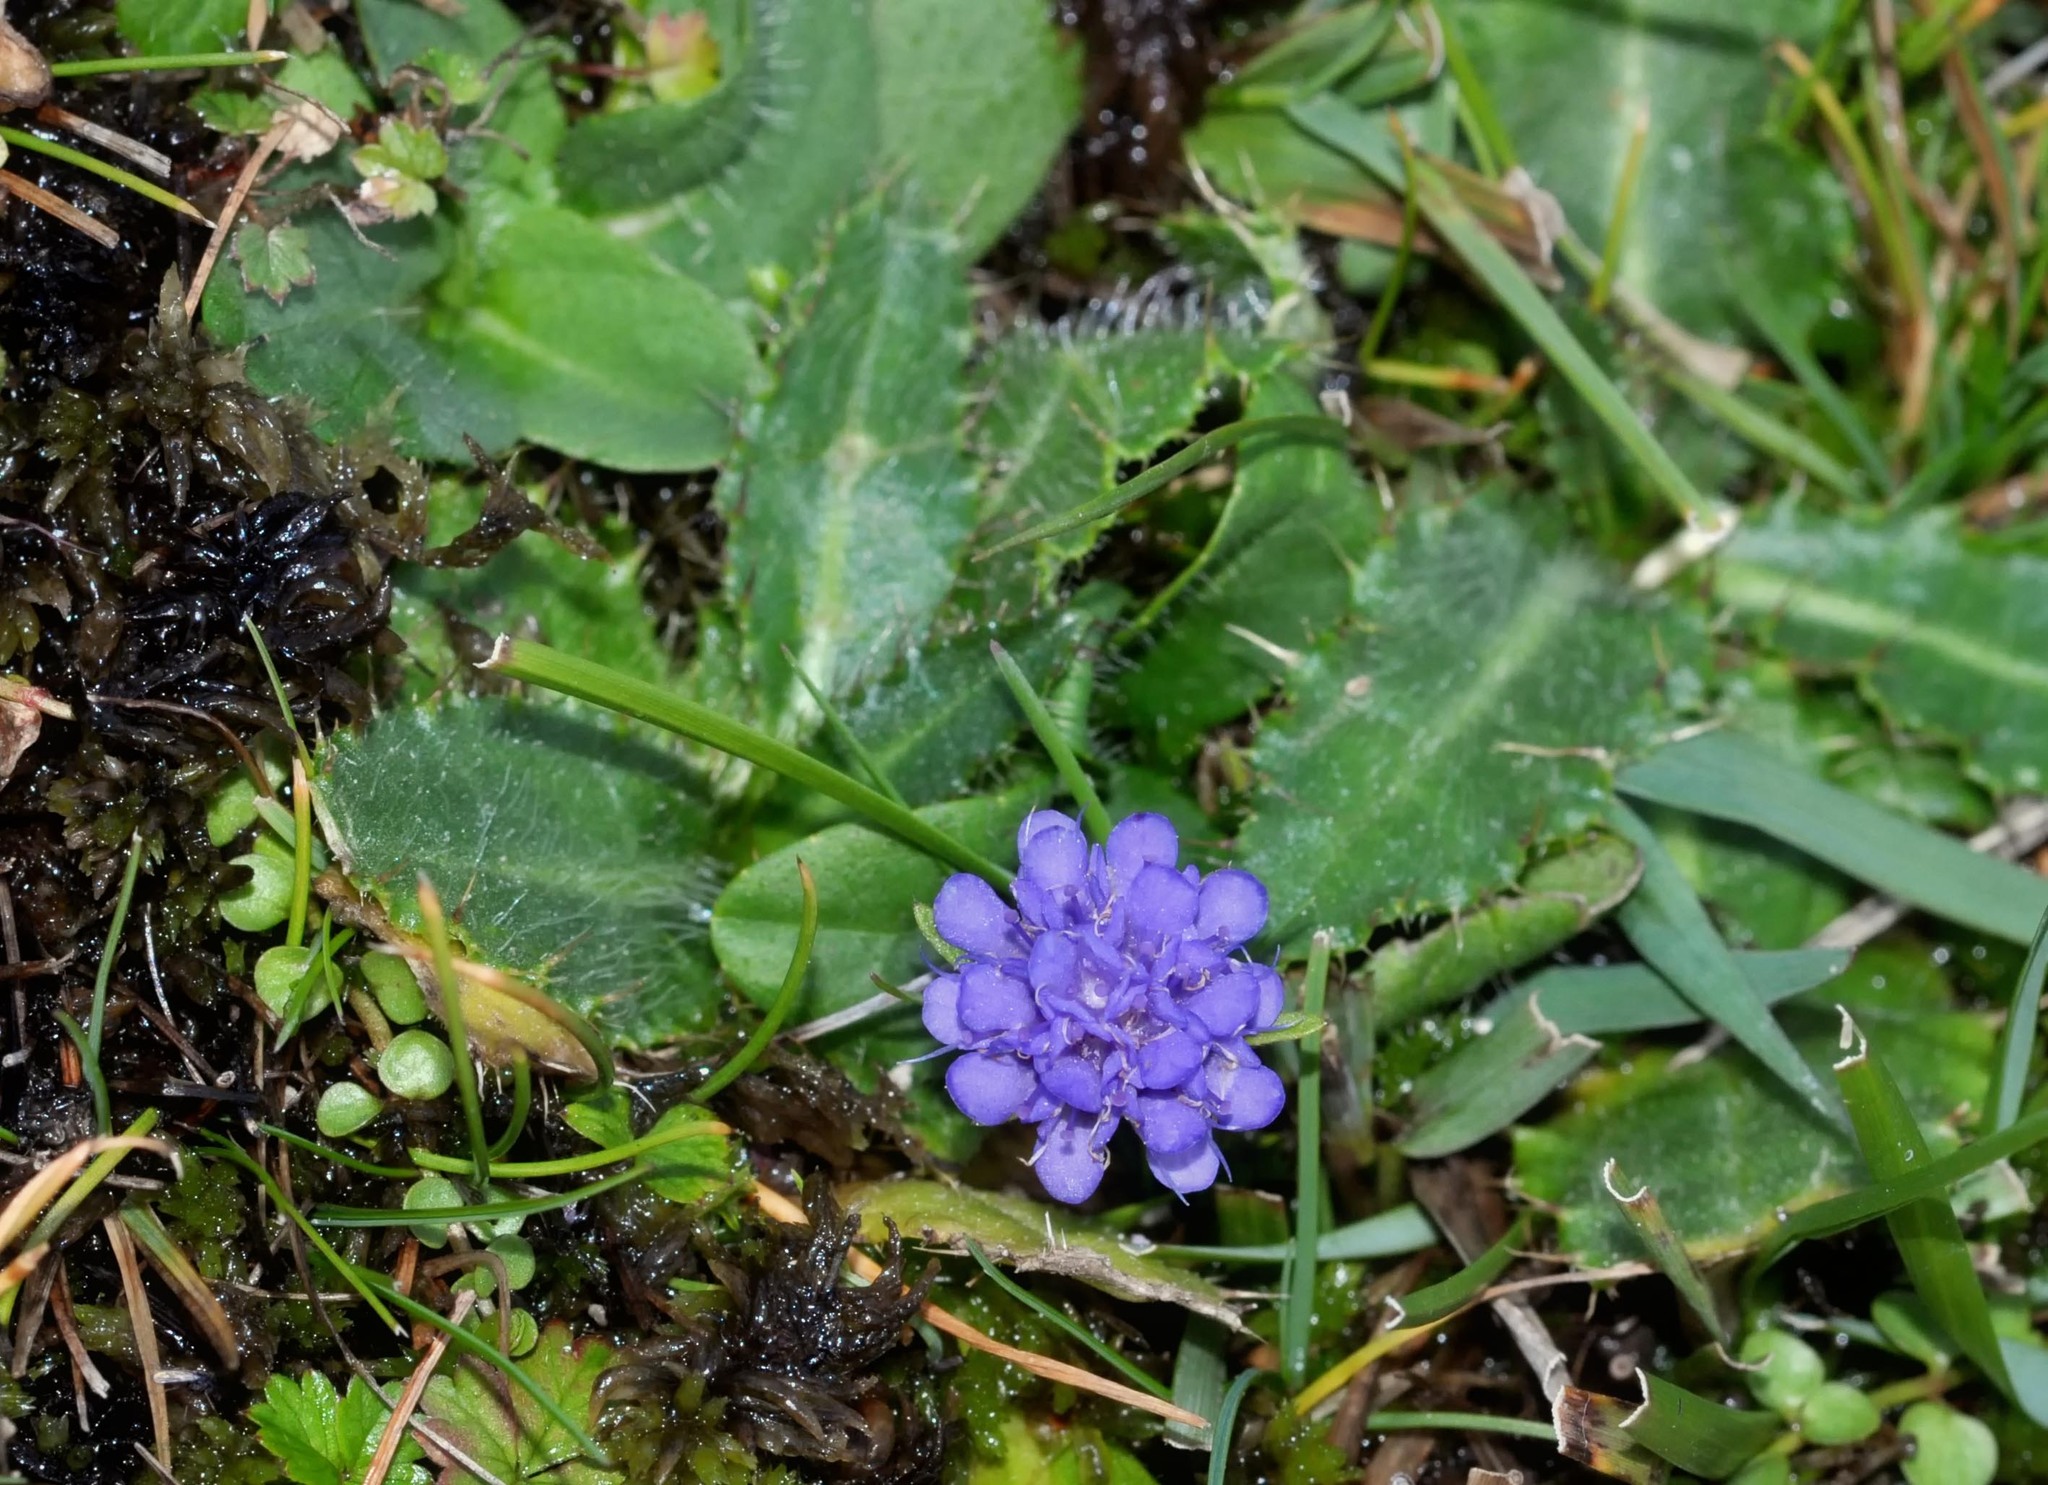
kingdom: Plantae
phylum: Tracheophyta
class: Magnoliopsida
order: Dipsacales
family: Caprifoliaceae
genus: Succisa
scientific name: Succisa pratensis
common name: Devil's-bit
